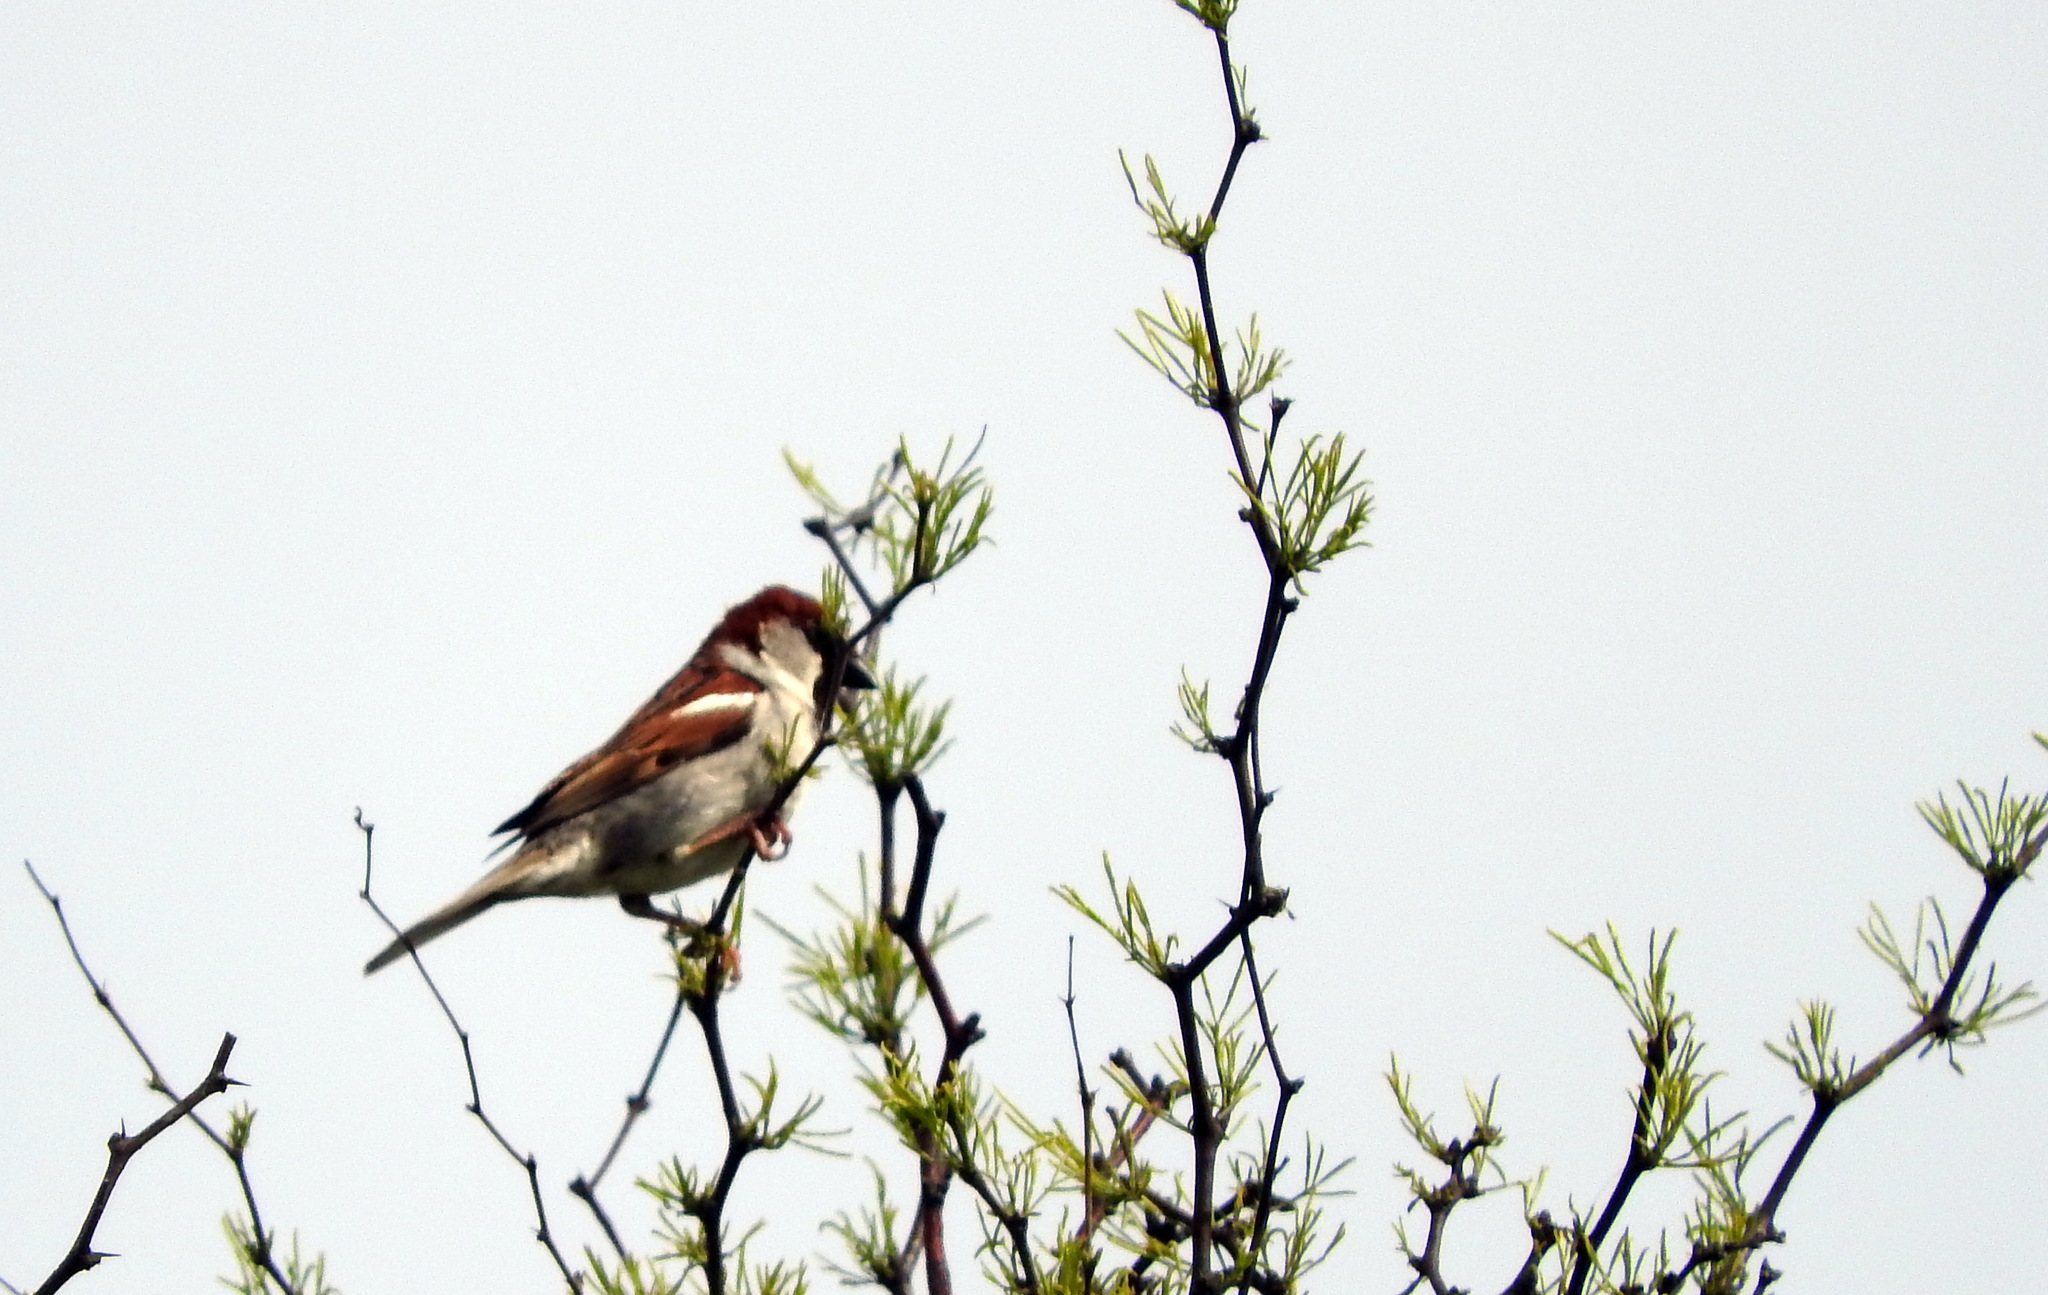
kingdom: Animalia
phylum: Chordata
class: Aves
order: Passeriformes
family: Passeridae
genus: Passer
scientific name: Passer domesticus
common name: House sparrow
